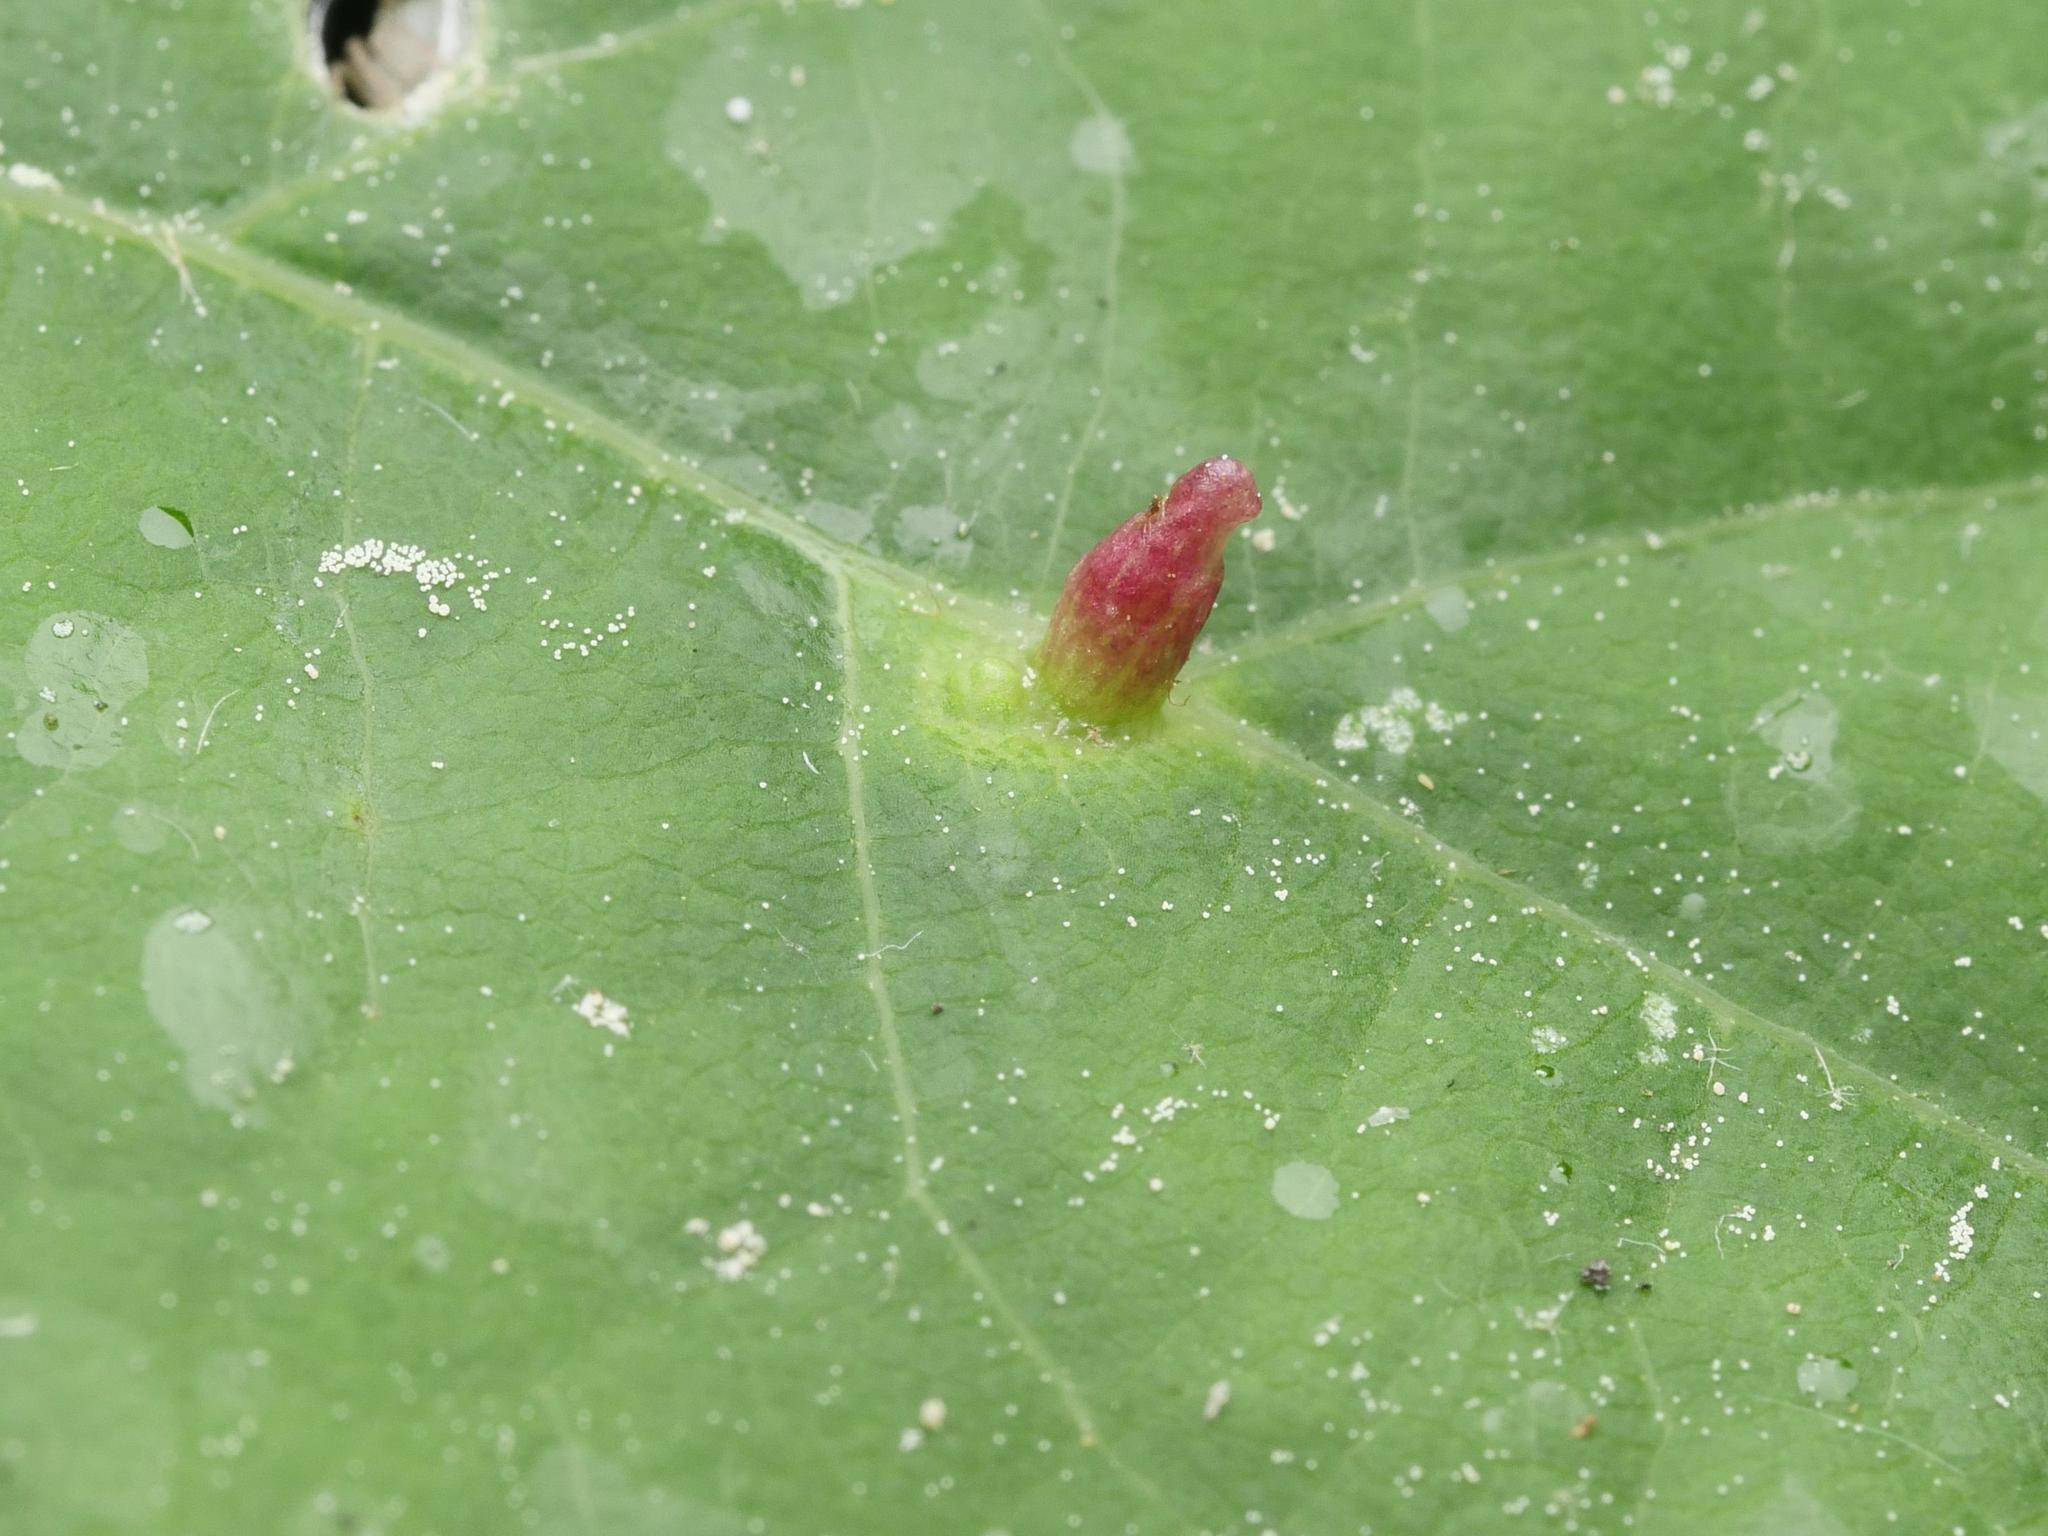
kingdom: Animalia
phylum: Arthropoda
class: Arachnida
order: Trombidiformes
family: Eriophyidae
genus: Eriophyes
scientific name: Eriophyes tiliae
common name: Red nail gall mite
